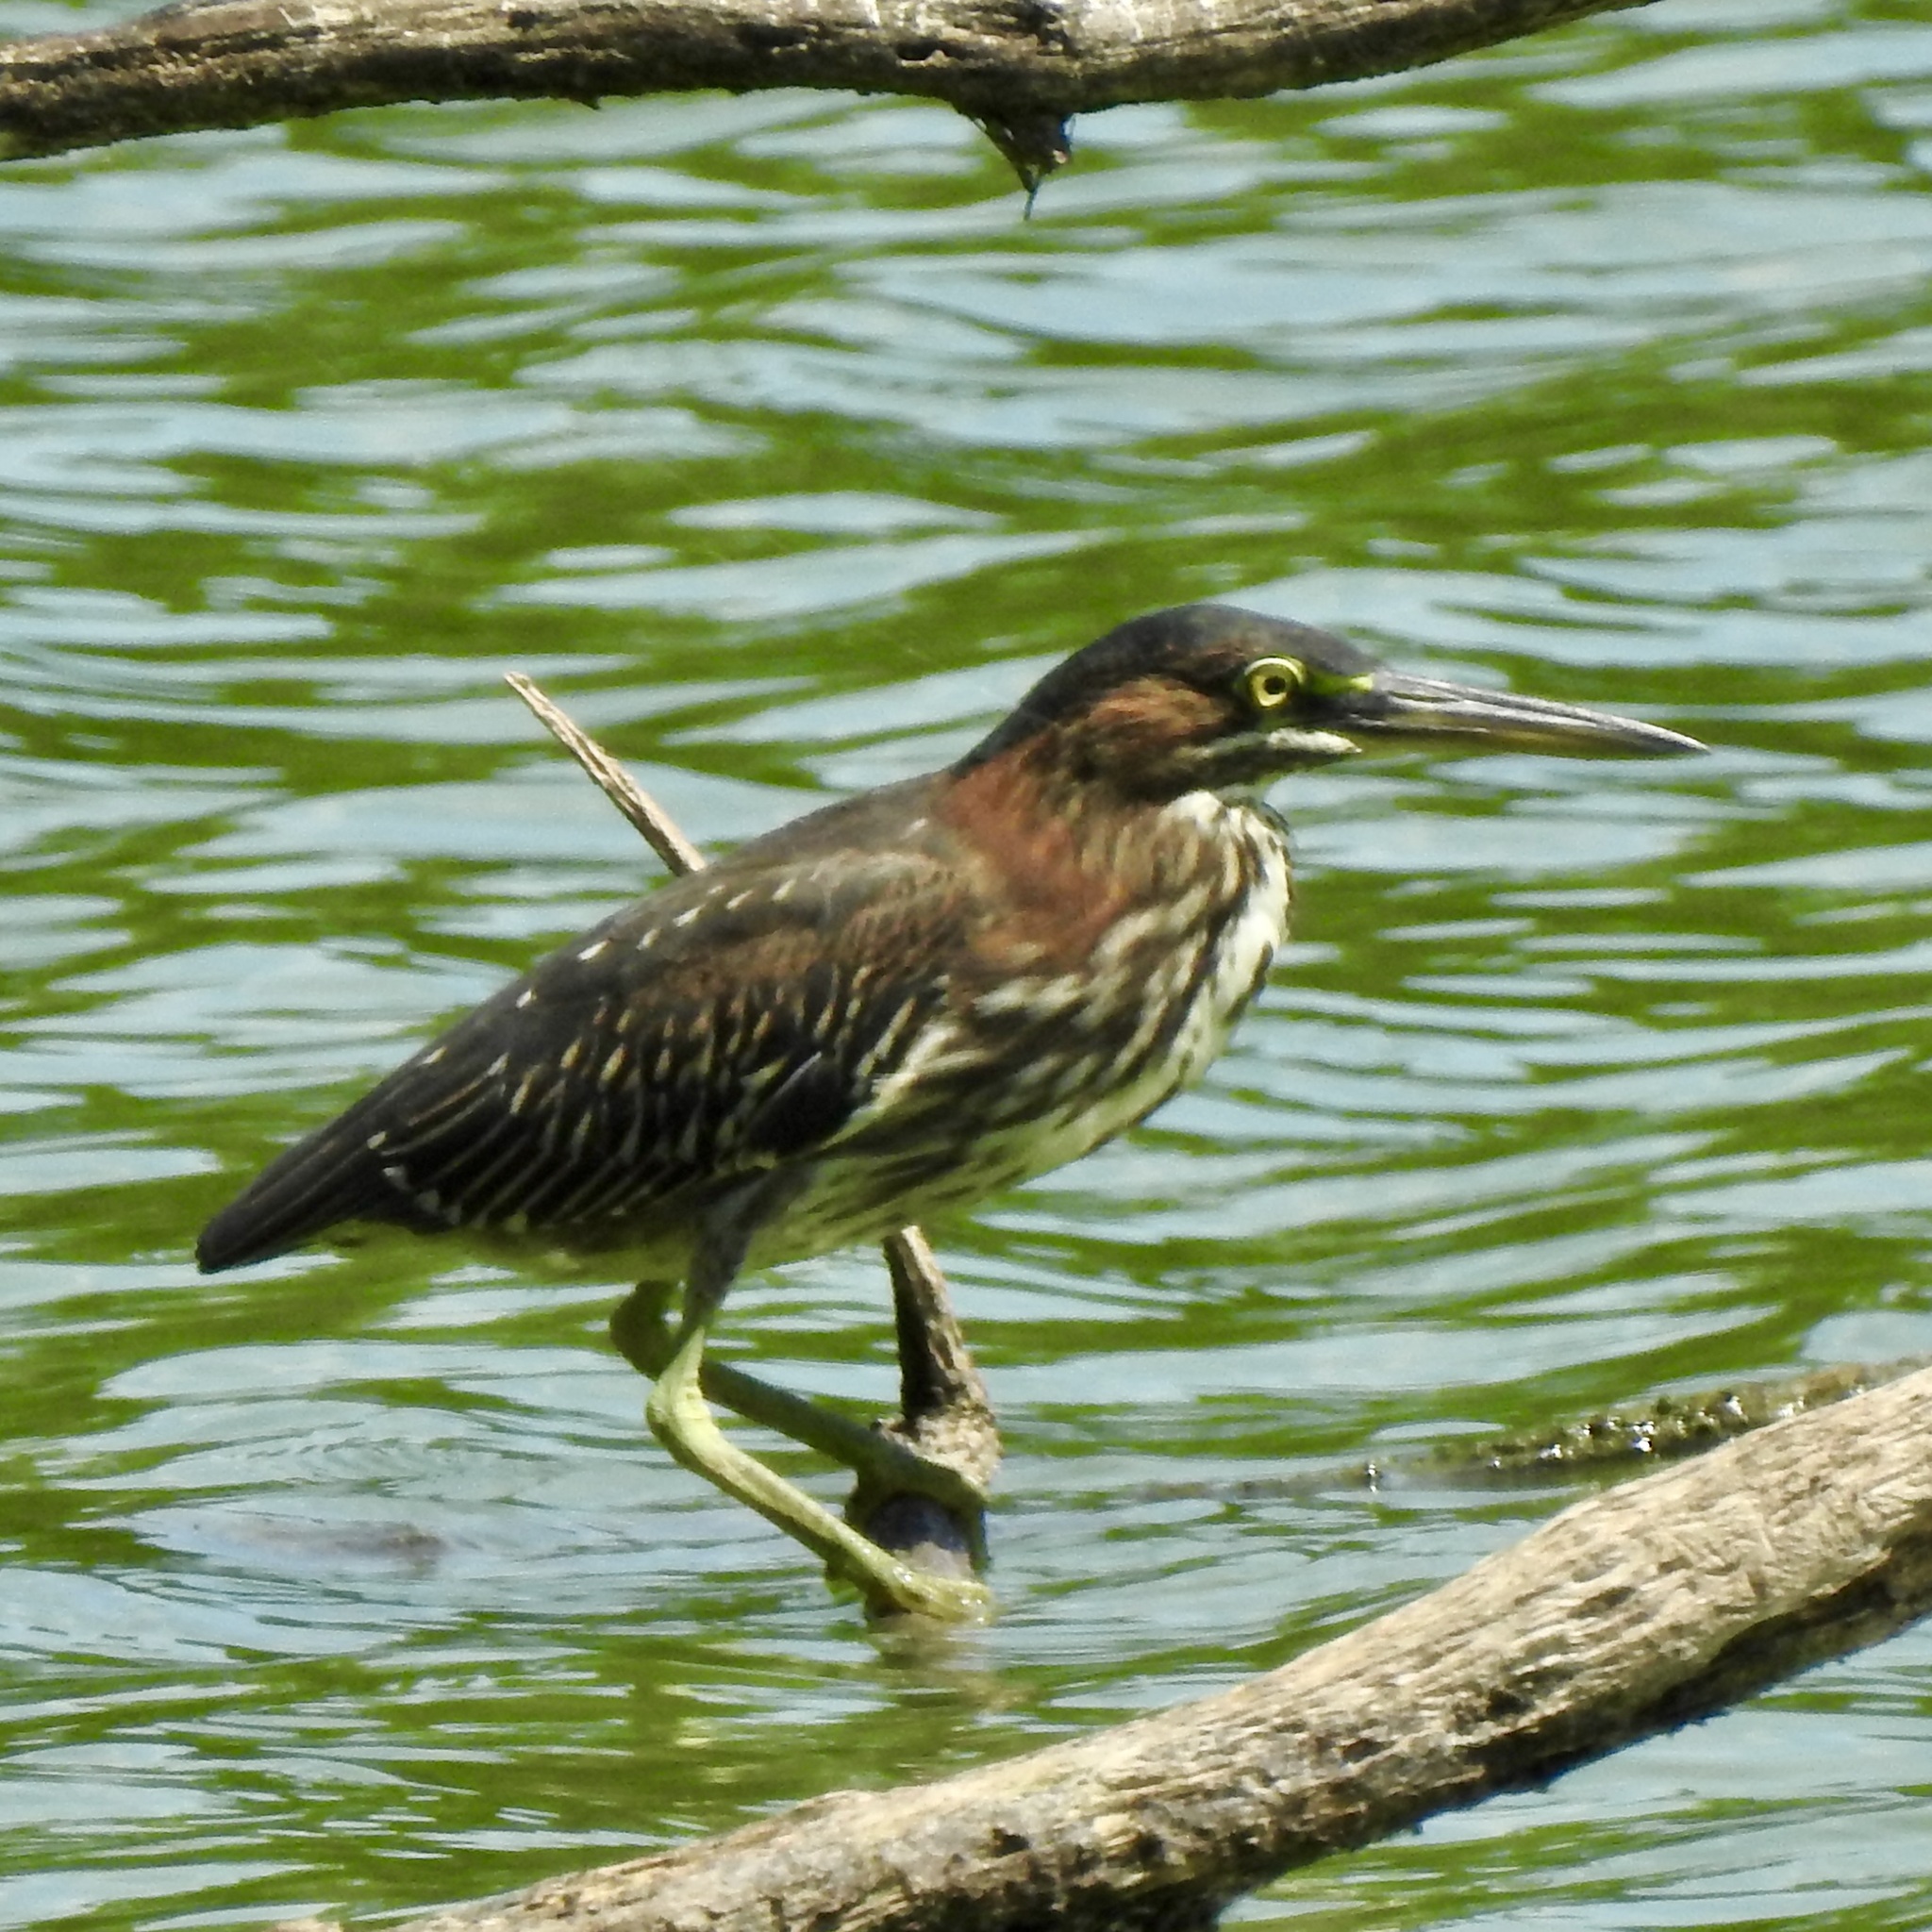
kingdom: Animalia
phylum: Chordata
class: Aves
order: Pelecaniformes
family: Ardeidae
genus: Butorides
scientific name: Butorides virescens
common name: Green heron
